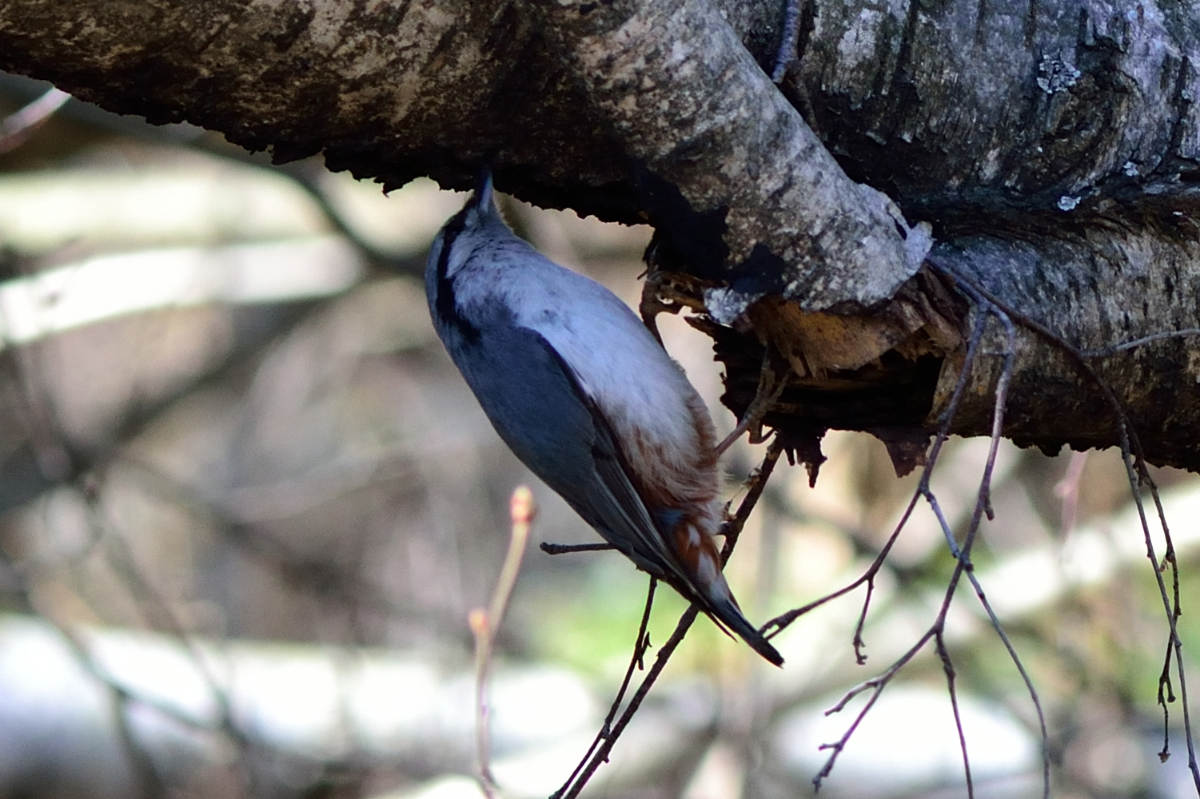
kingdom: Animalia
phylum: Chordata
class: Aves
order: Passeriformes
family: Sittidae
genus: Sitta
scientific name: Sitta europaea
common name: Eurasian nuthatch
